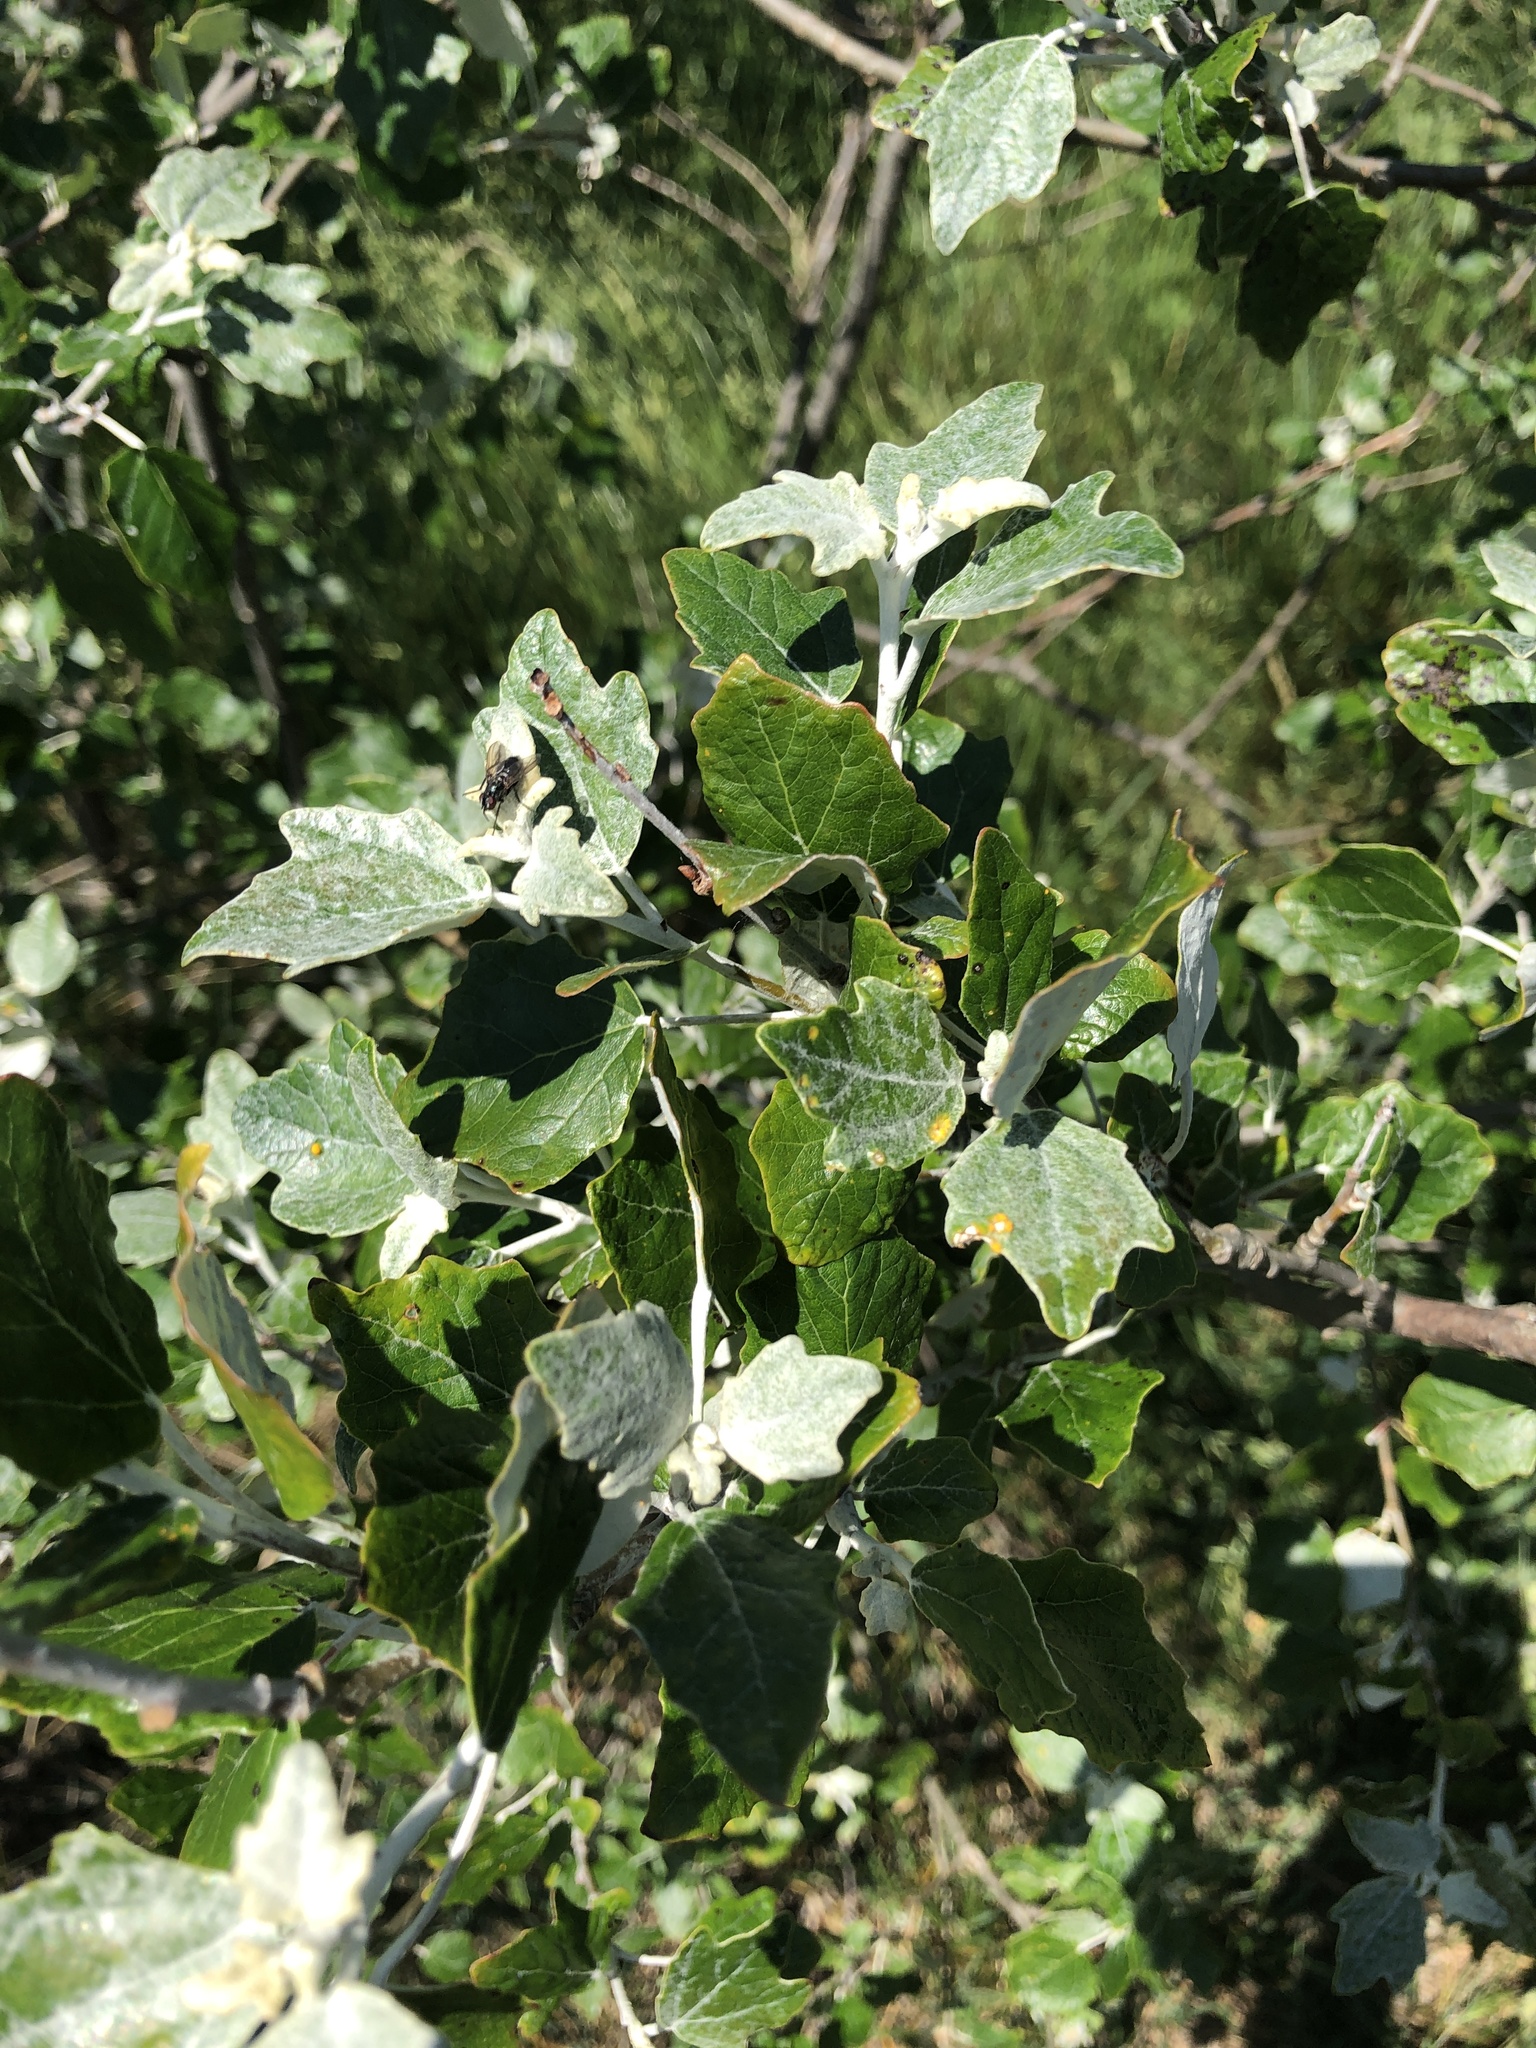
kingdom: Plantae
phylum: Tracheophyta
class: Magnoliopsida
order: Malpighiales
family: Salicaceae
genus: Populus
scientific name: Populus alba
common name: White poplar
